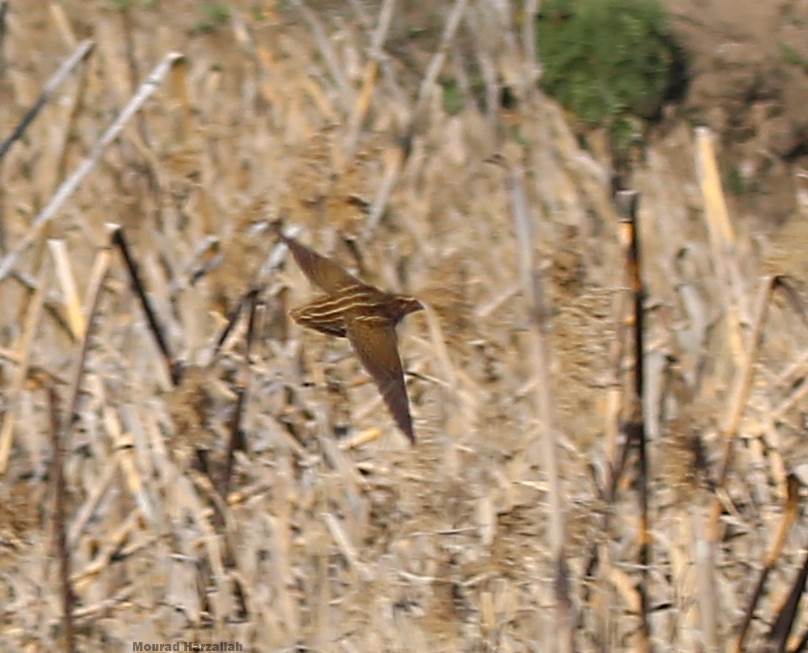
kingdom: Animalia
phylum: Chordata
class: Aves
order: Galliformes
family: Phasianidae
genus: Coturnix
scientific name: Coturnix coturnix
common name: Common quail
